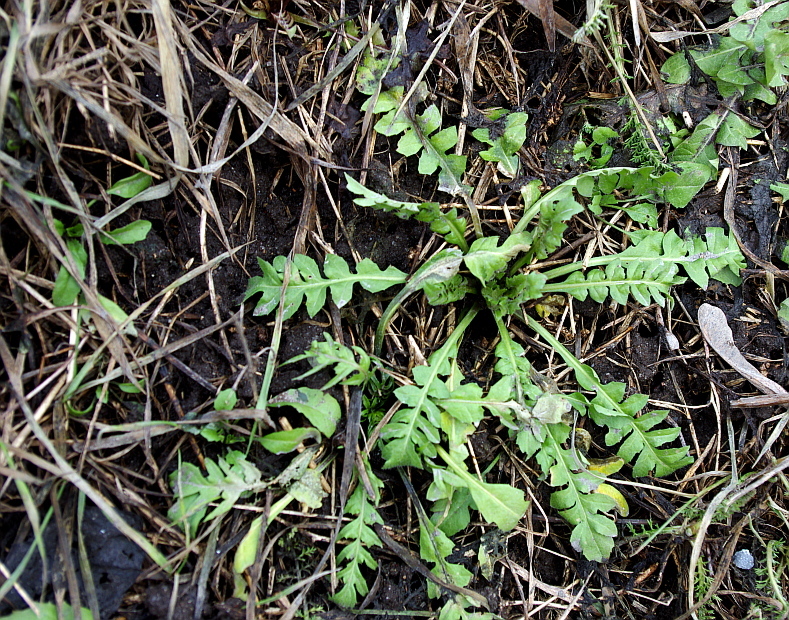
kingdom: Plantae
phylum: Tracheophyta
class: Magnoliopsida
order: Brassicales
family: Brassicaceae
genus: Capsella
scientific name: Capsella bursa-pastoris
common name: Shepherd's purse
